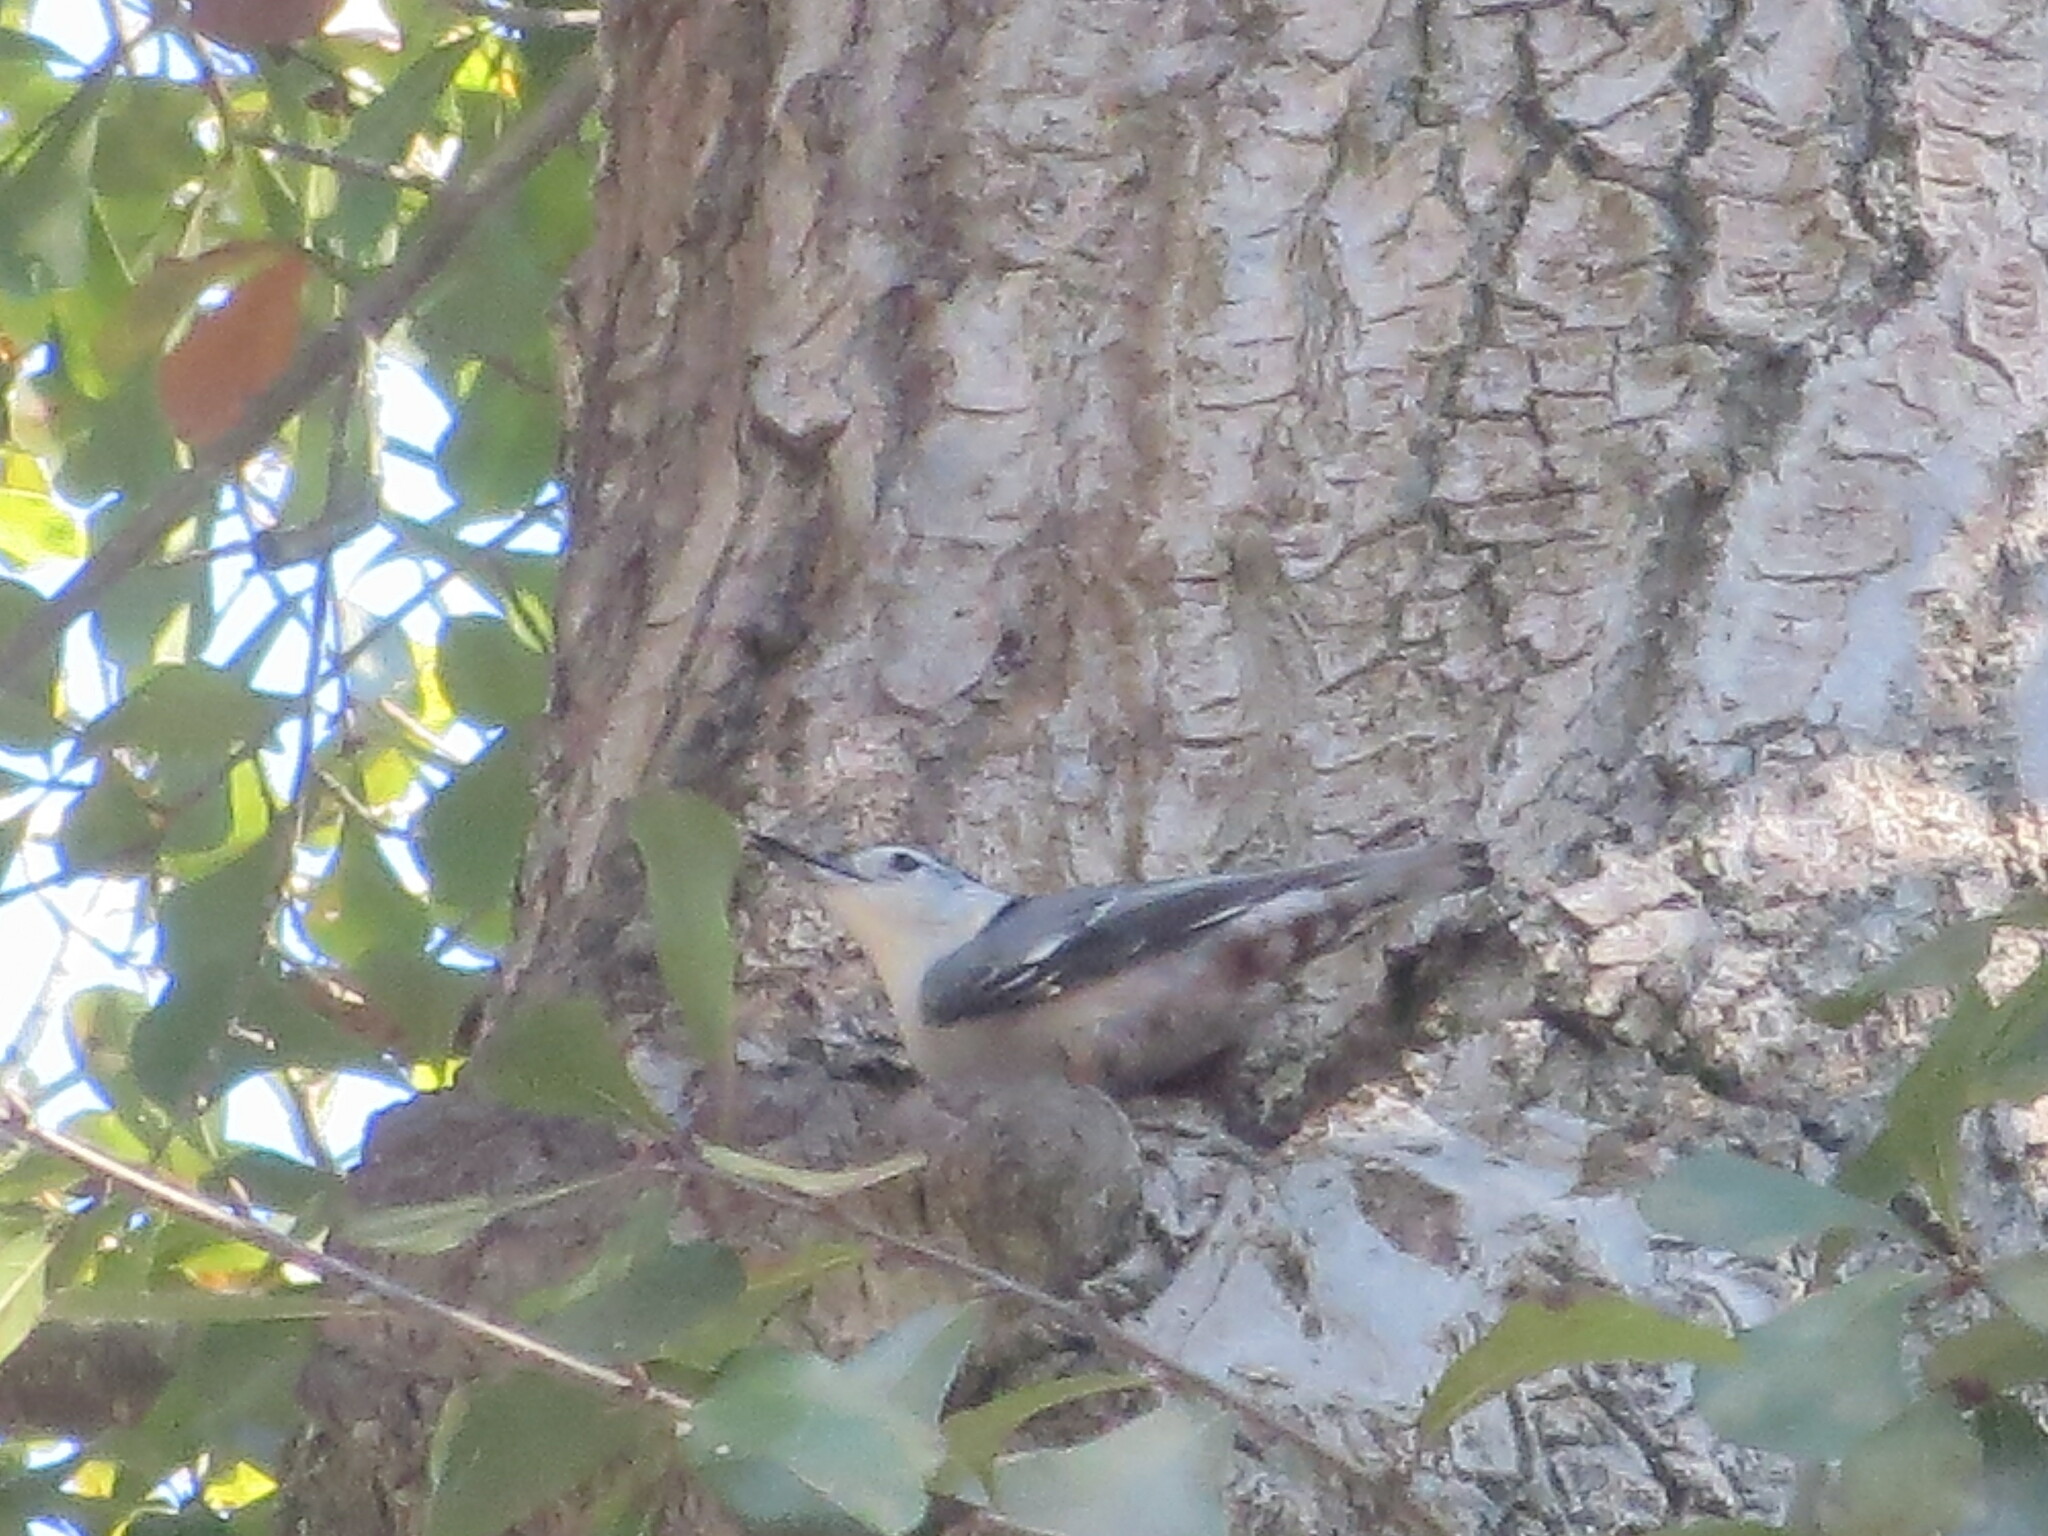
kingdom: Animalia
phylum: Chordata
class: Aves
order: Passeriformes
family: Sittidae
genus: Sitta
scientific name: Sitta carolinensis
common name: White-breasted nuthatch
